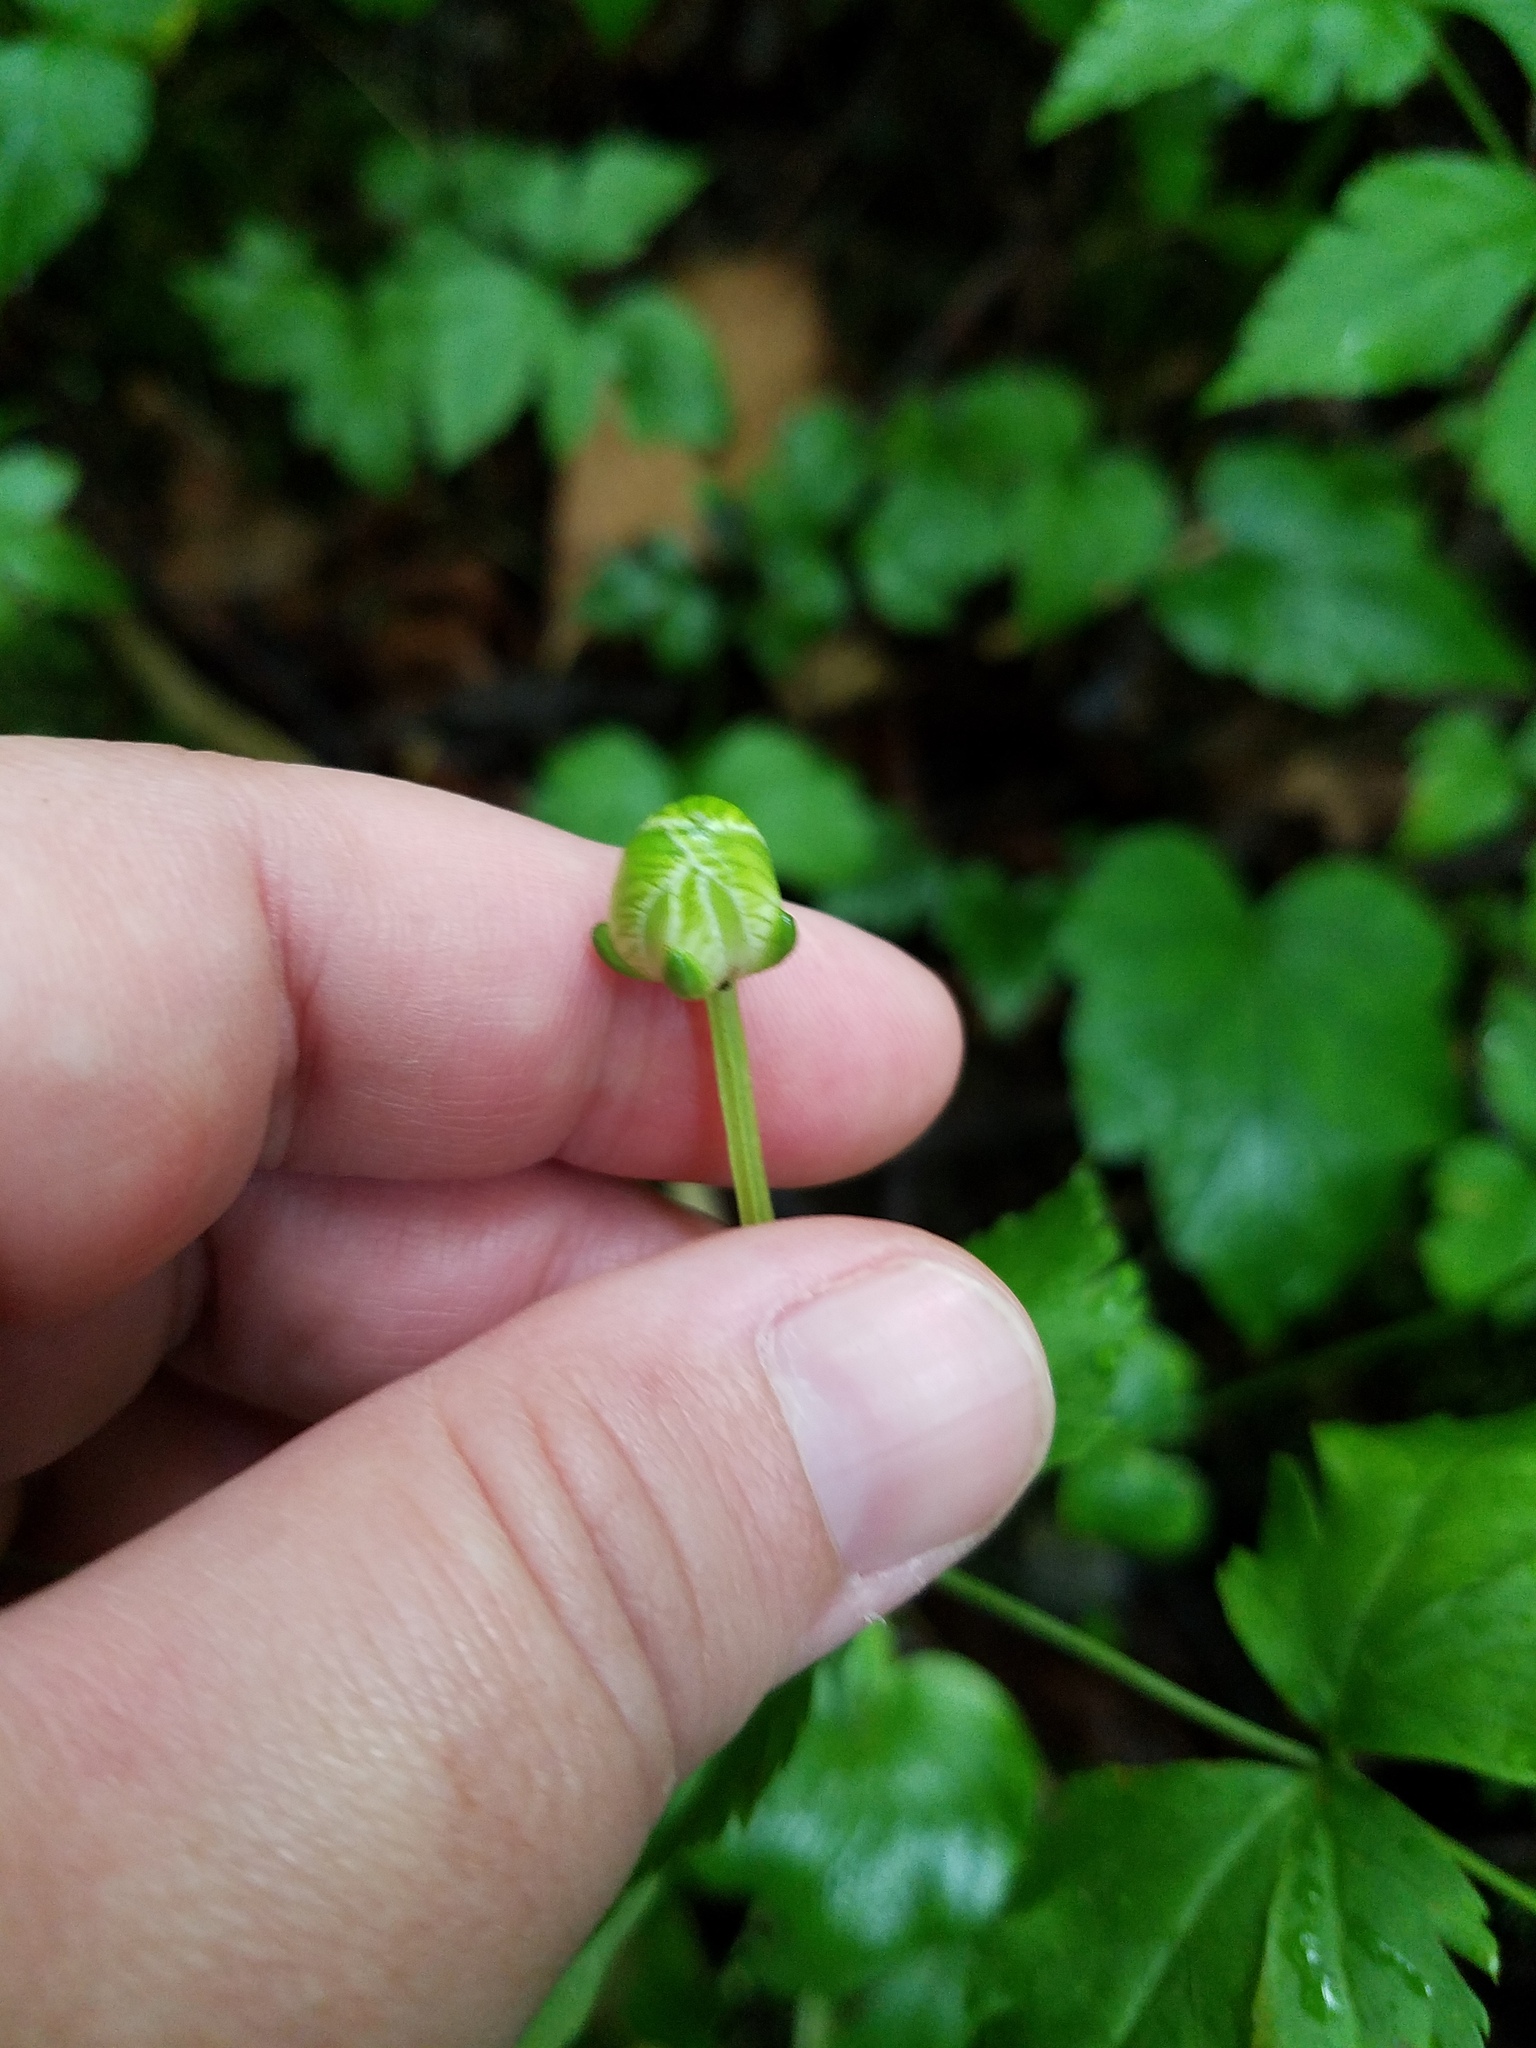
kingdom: Plantae
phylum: Tracheophyta
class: Magnoliopsida
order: Celastrales
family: Parnassiaceae
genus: Parnassia
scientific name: Parnassia asarifolia
